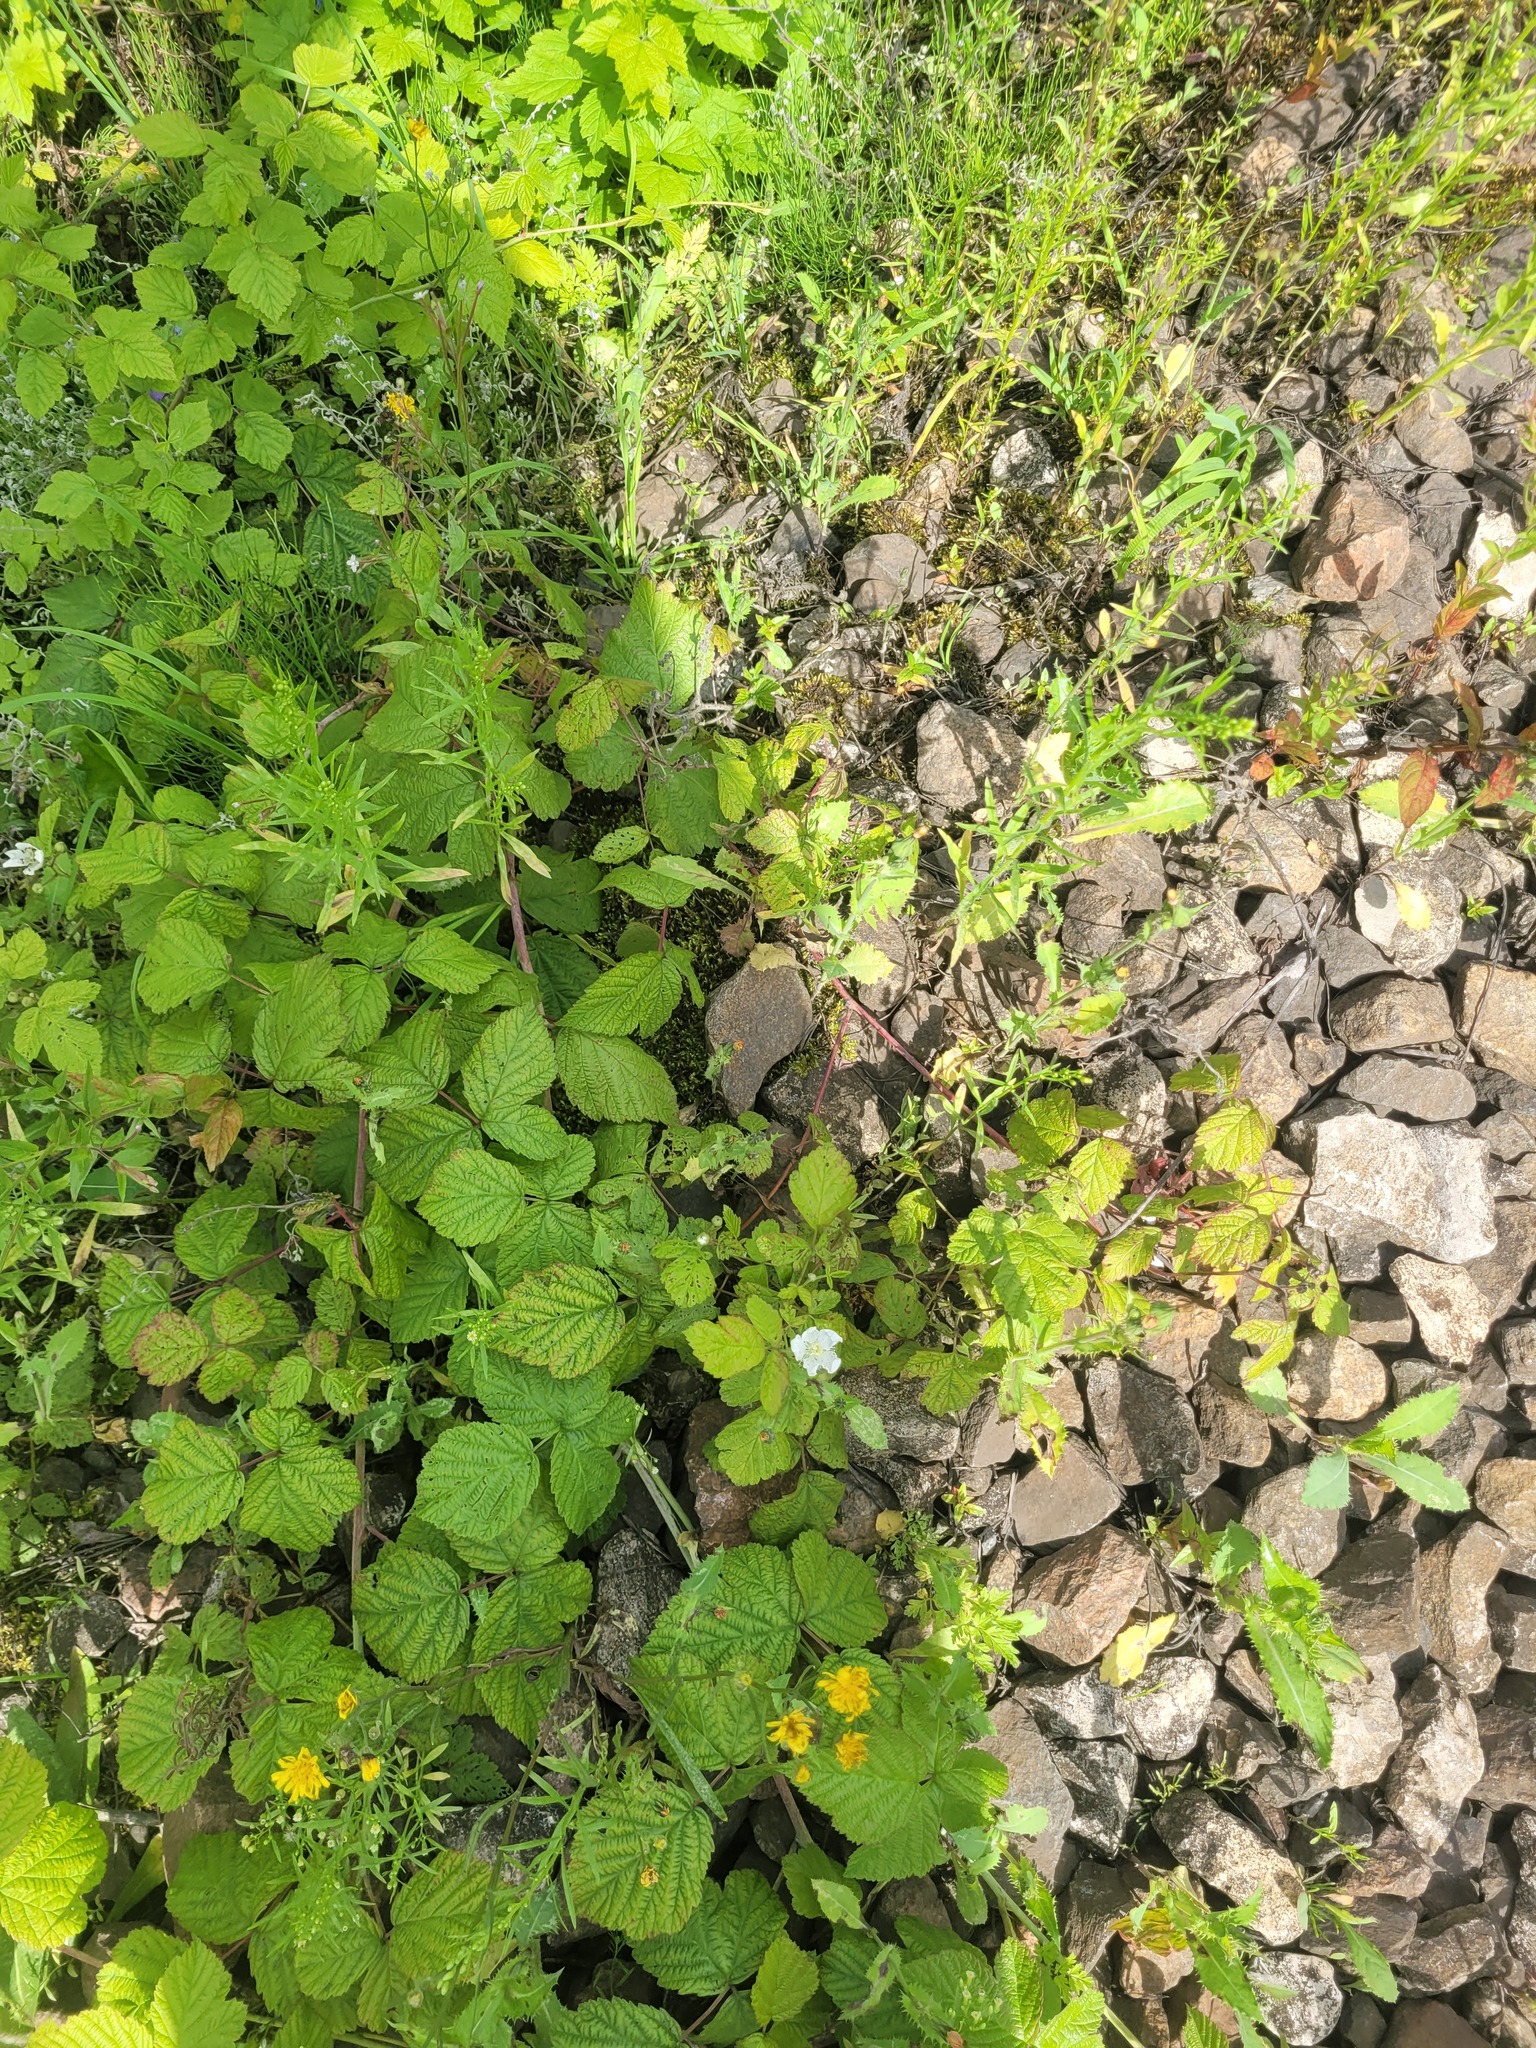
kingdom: Plantae
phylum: Tracheophyta
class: Magnoliopsida
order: Rosales
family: Rosaceae
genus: Rubus
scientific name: Rubus caesius
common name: Dewberry
